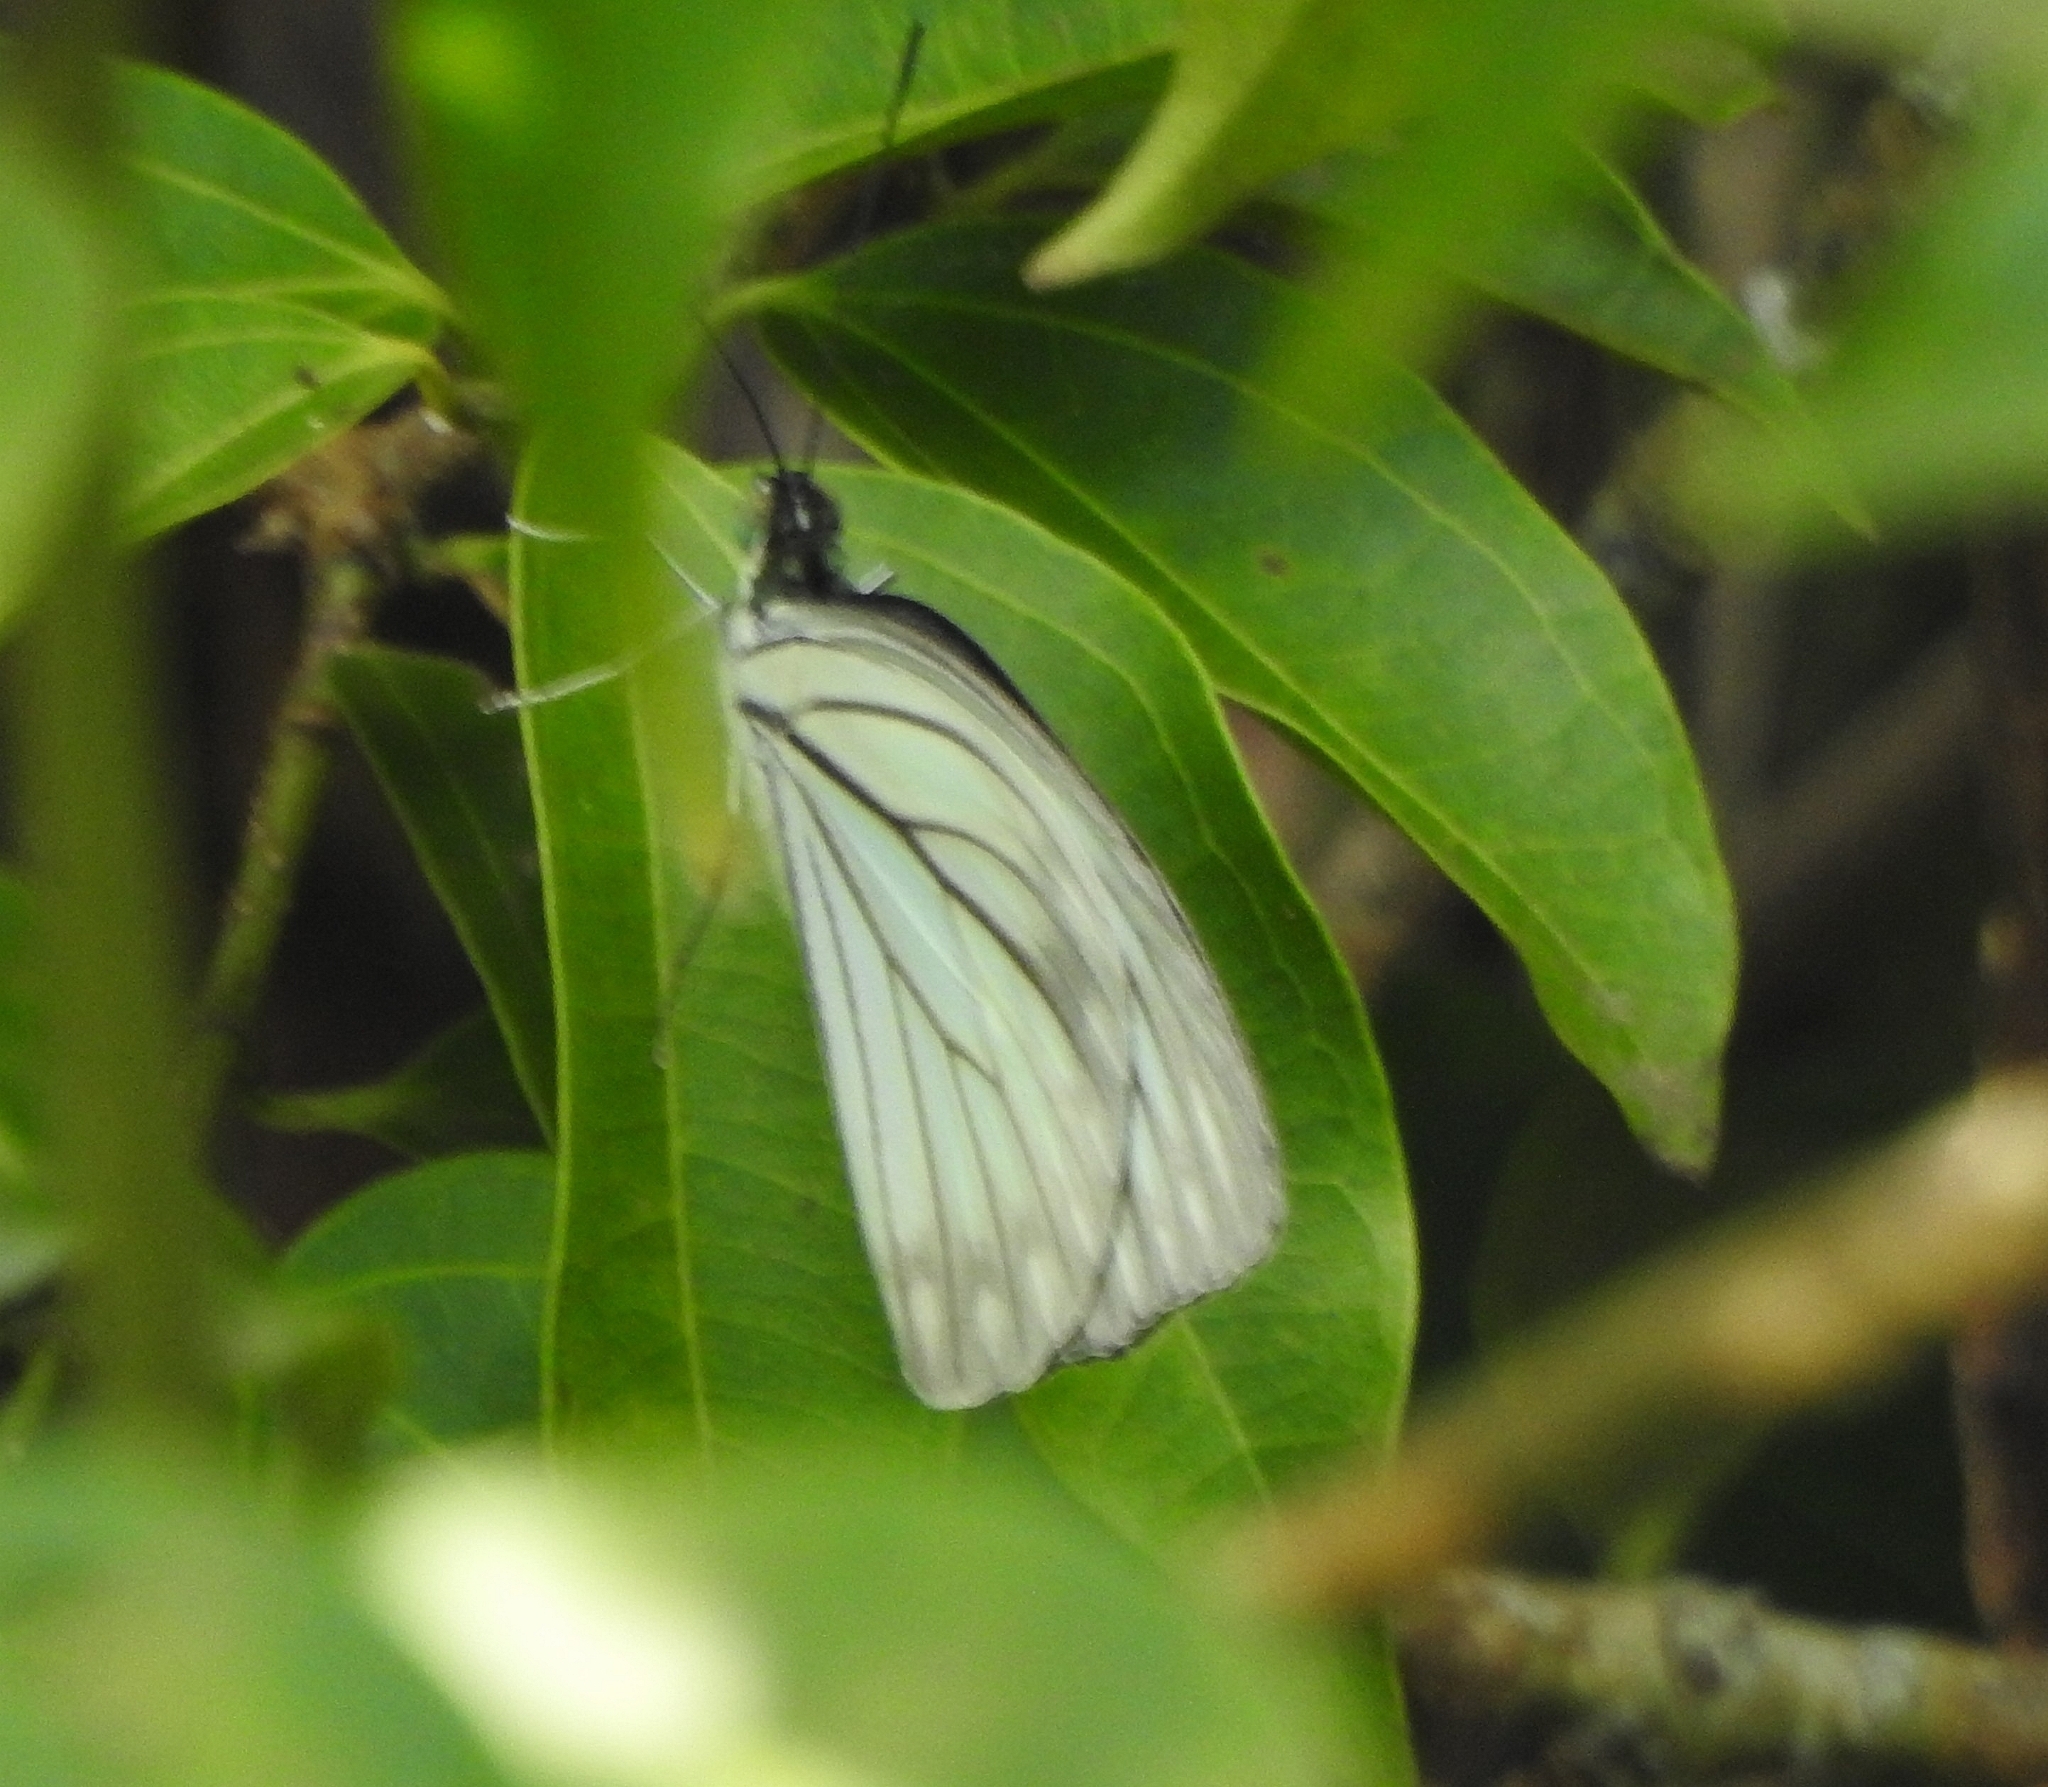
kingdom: Animalia
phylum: Arthropoda
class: Insecta
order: Lepidoptera
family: Pieridae
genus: Pareronia
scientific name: Pareronia hippia
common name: Indian wanderer
